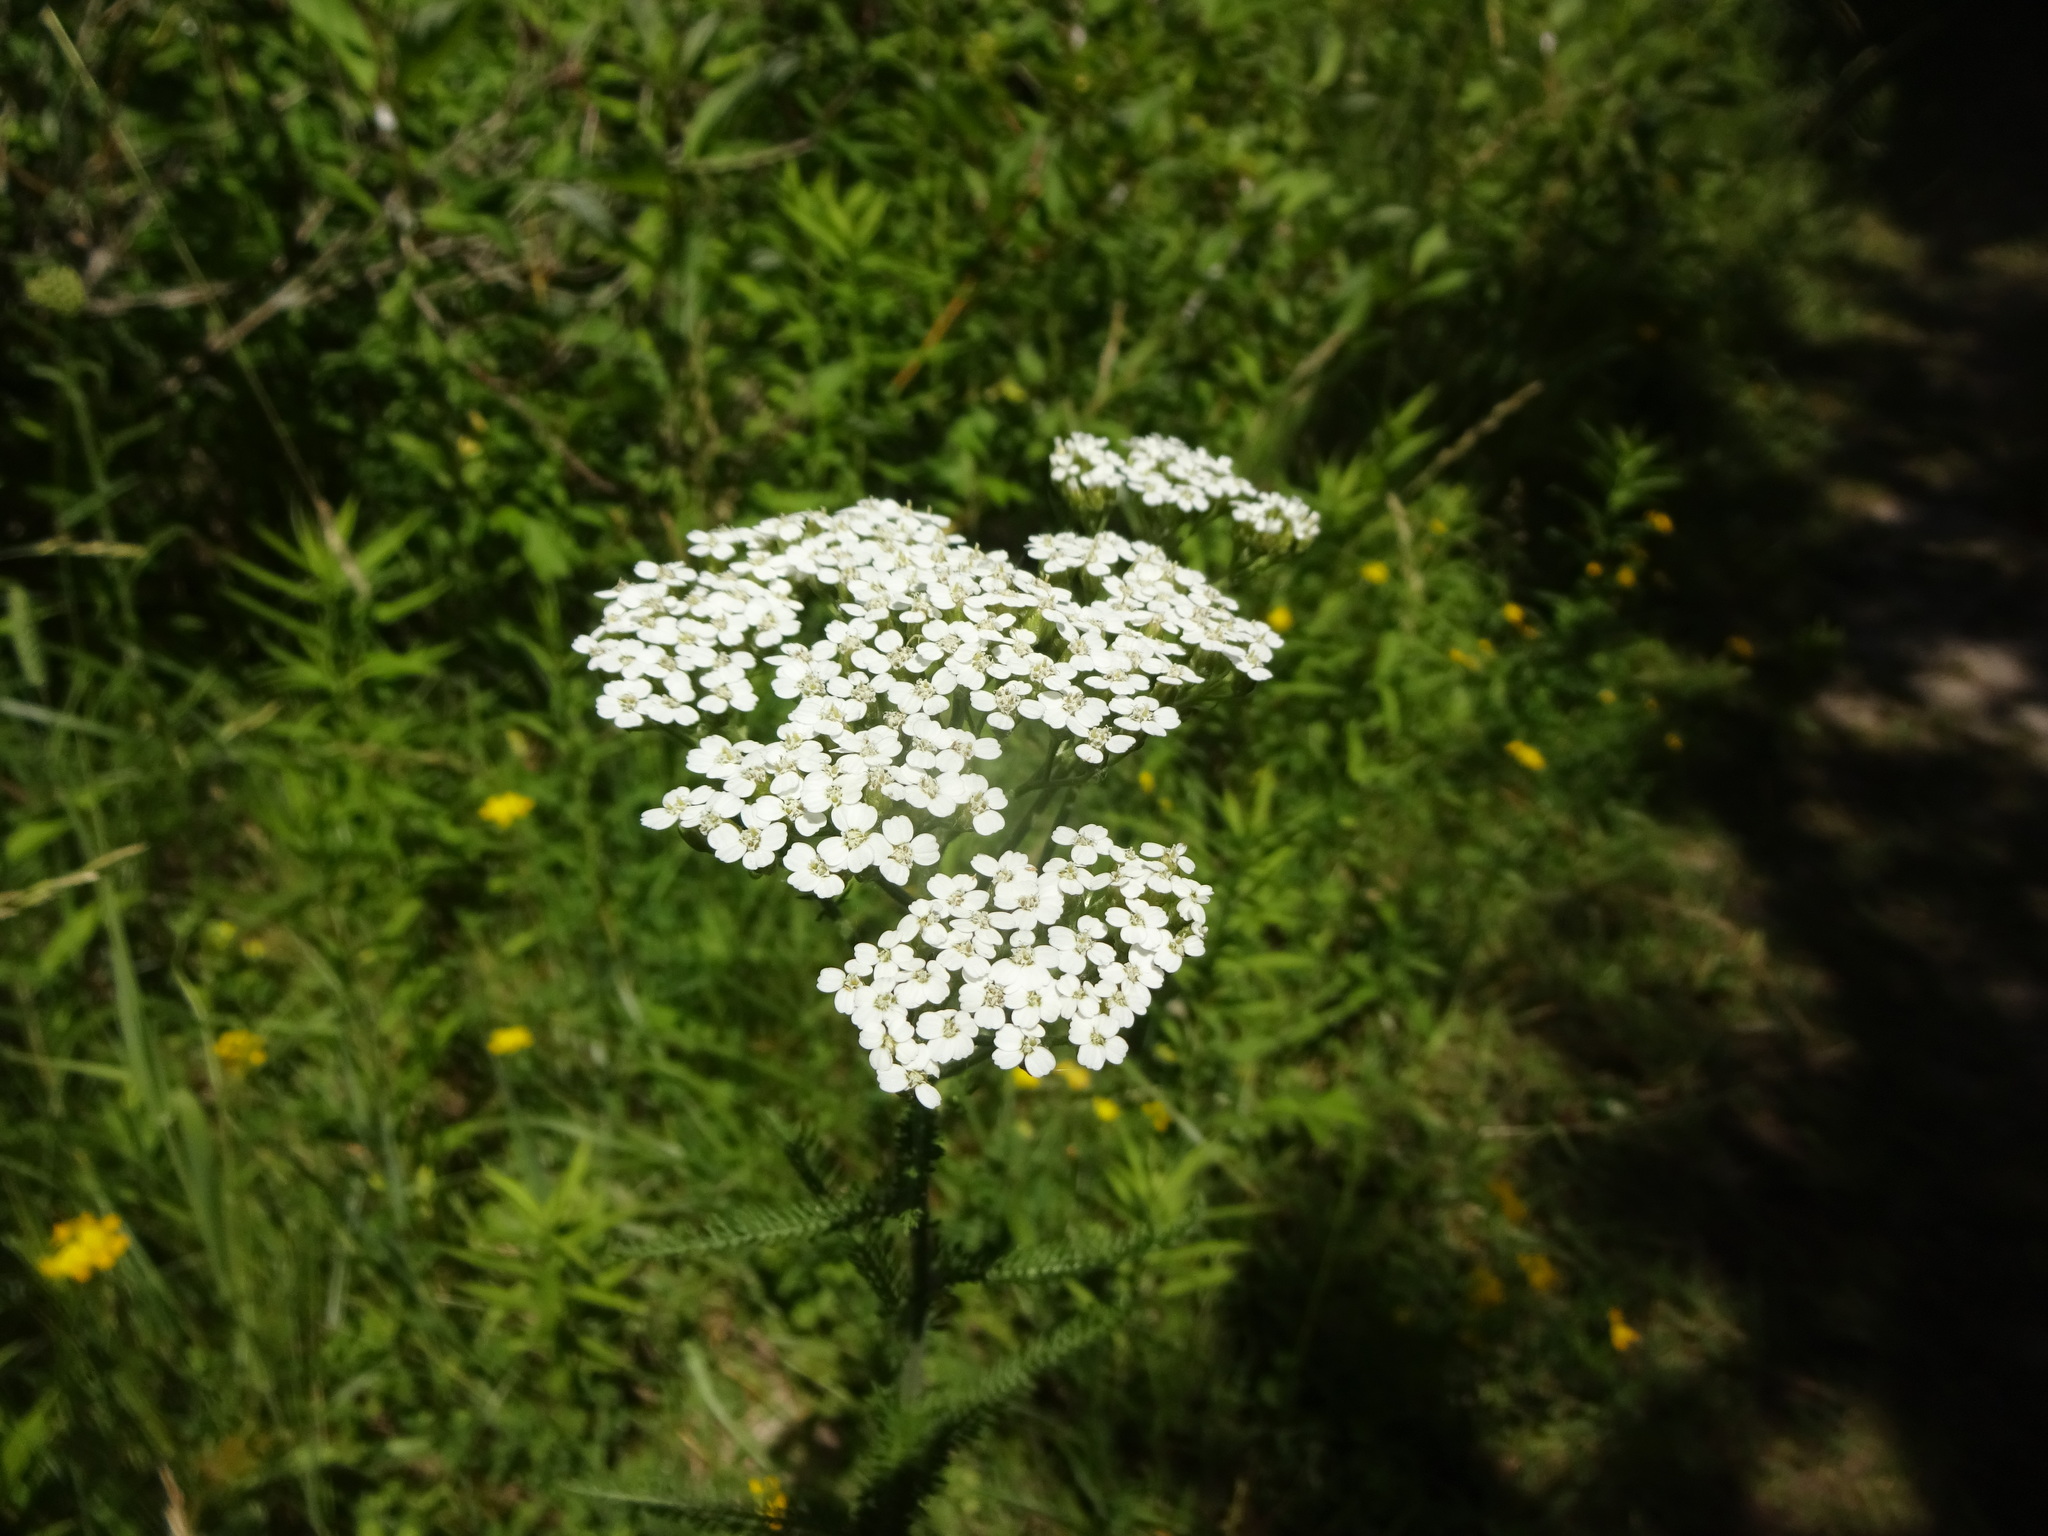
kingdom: Plantae
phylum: Tracheophyta
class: Magnoliopsida
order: Asterales
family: Asteraceae
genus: Achillea
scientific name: Achillea millefolium
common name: Yarrow
